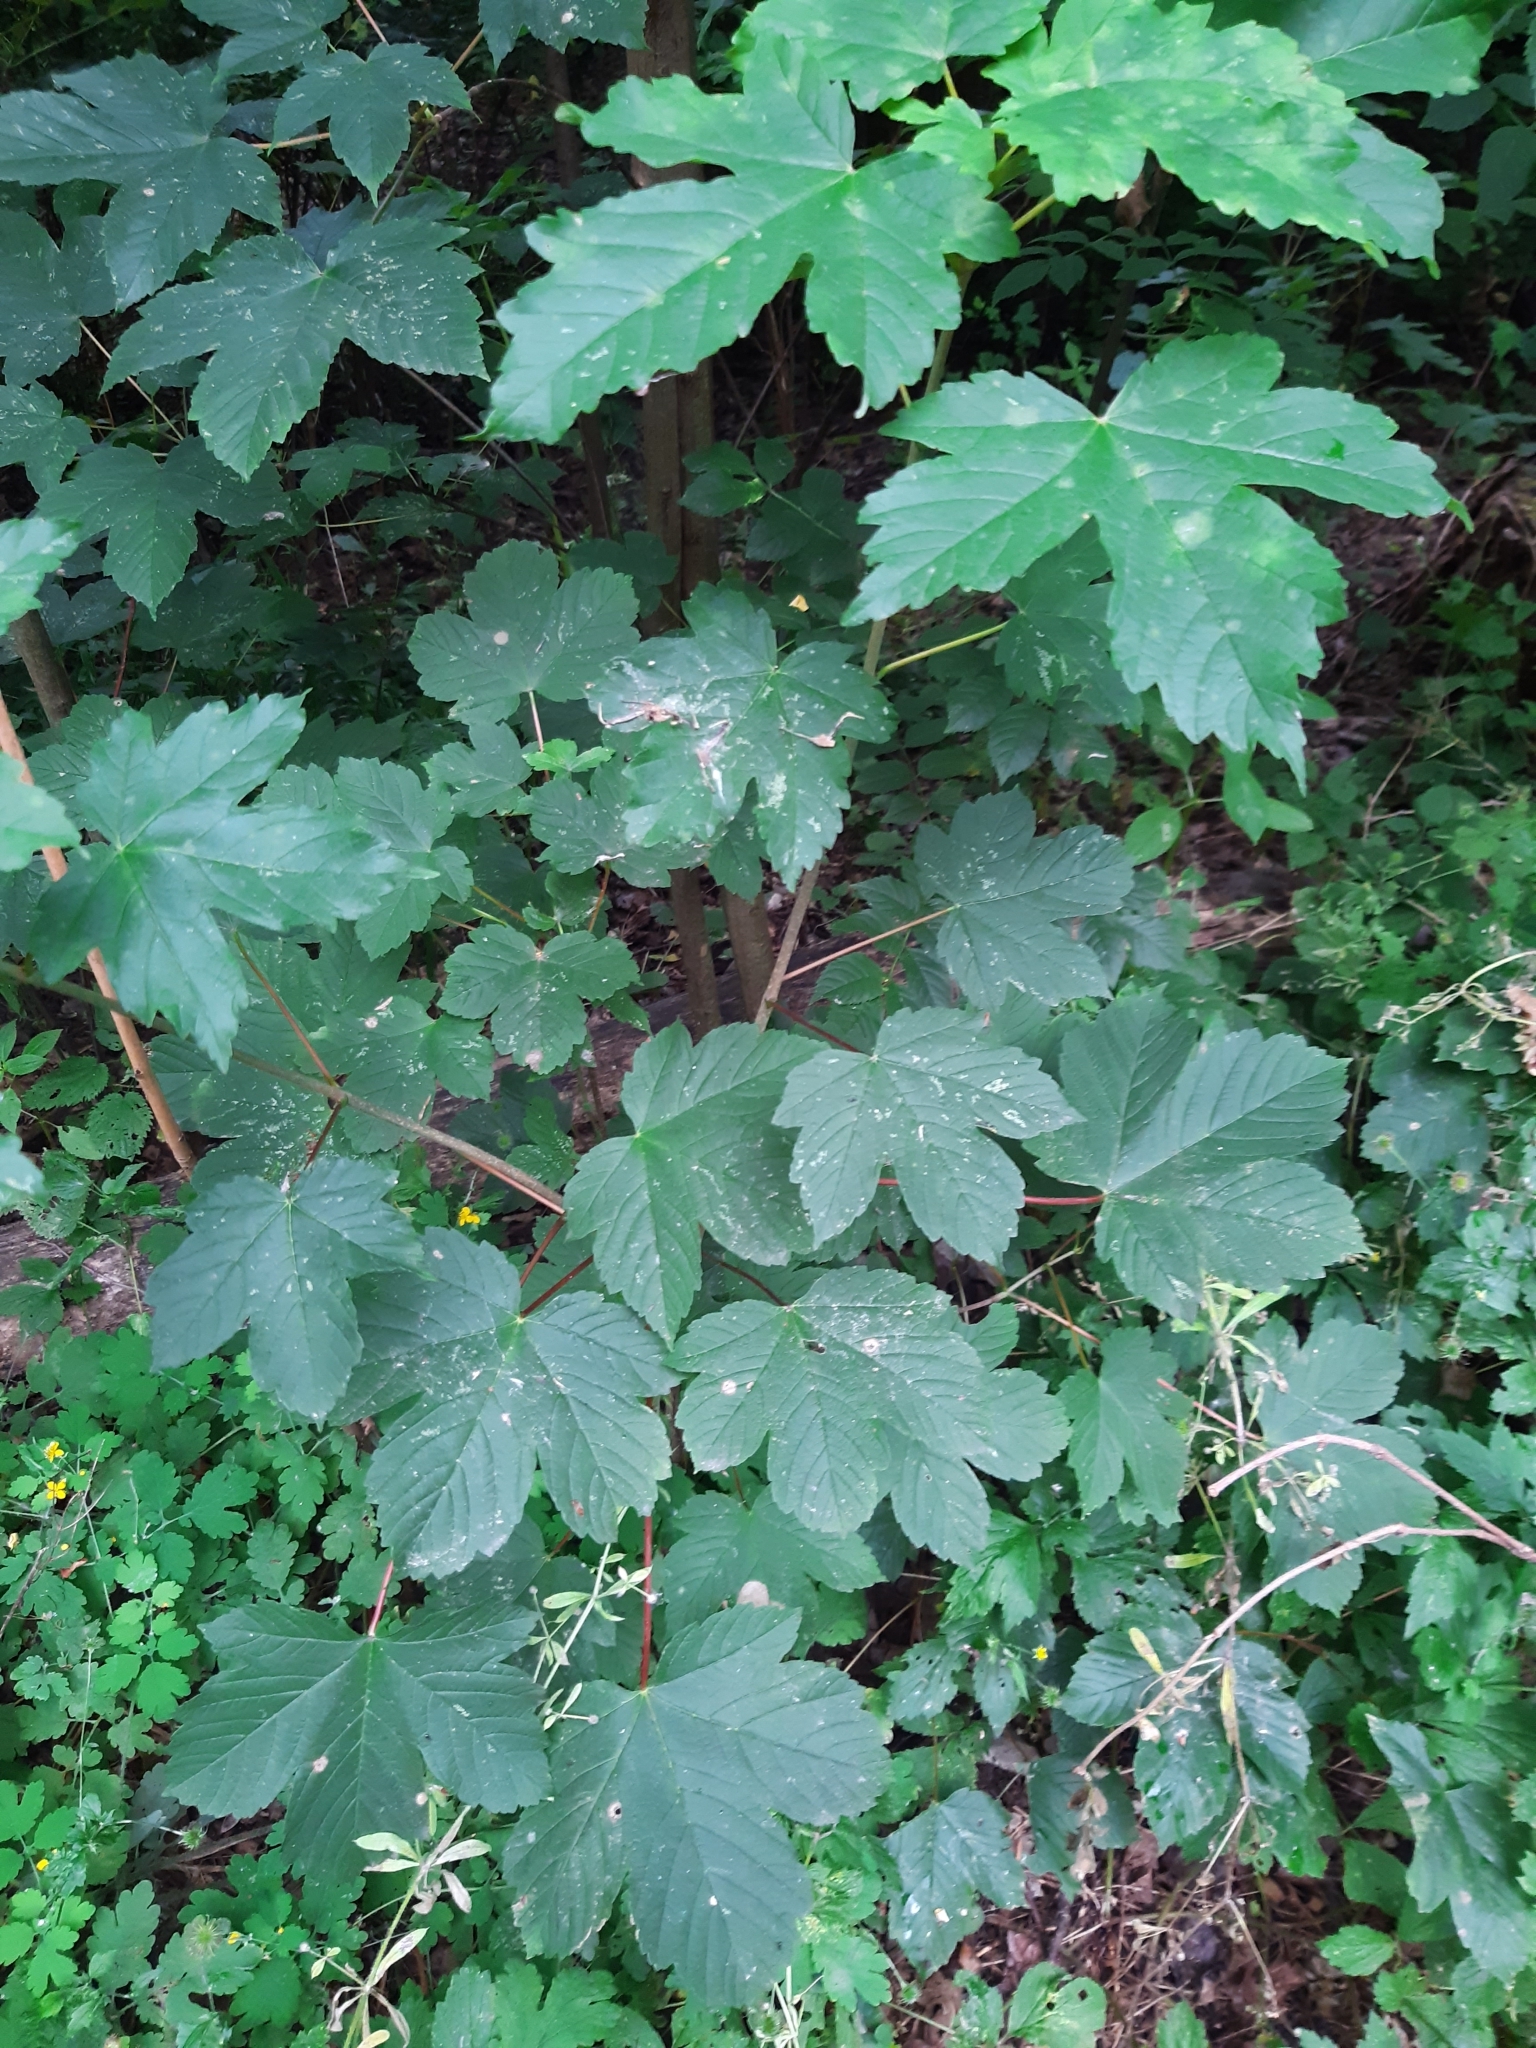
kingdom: Plantae
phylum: Tracheophyta
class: Magnoliopsida
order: Sapindales
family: Sapindaceae
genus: Acer
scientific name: Acer pseudoplatanus
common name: Sycamore
